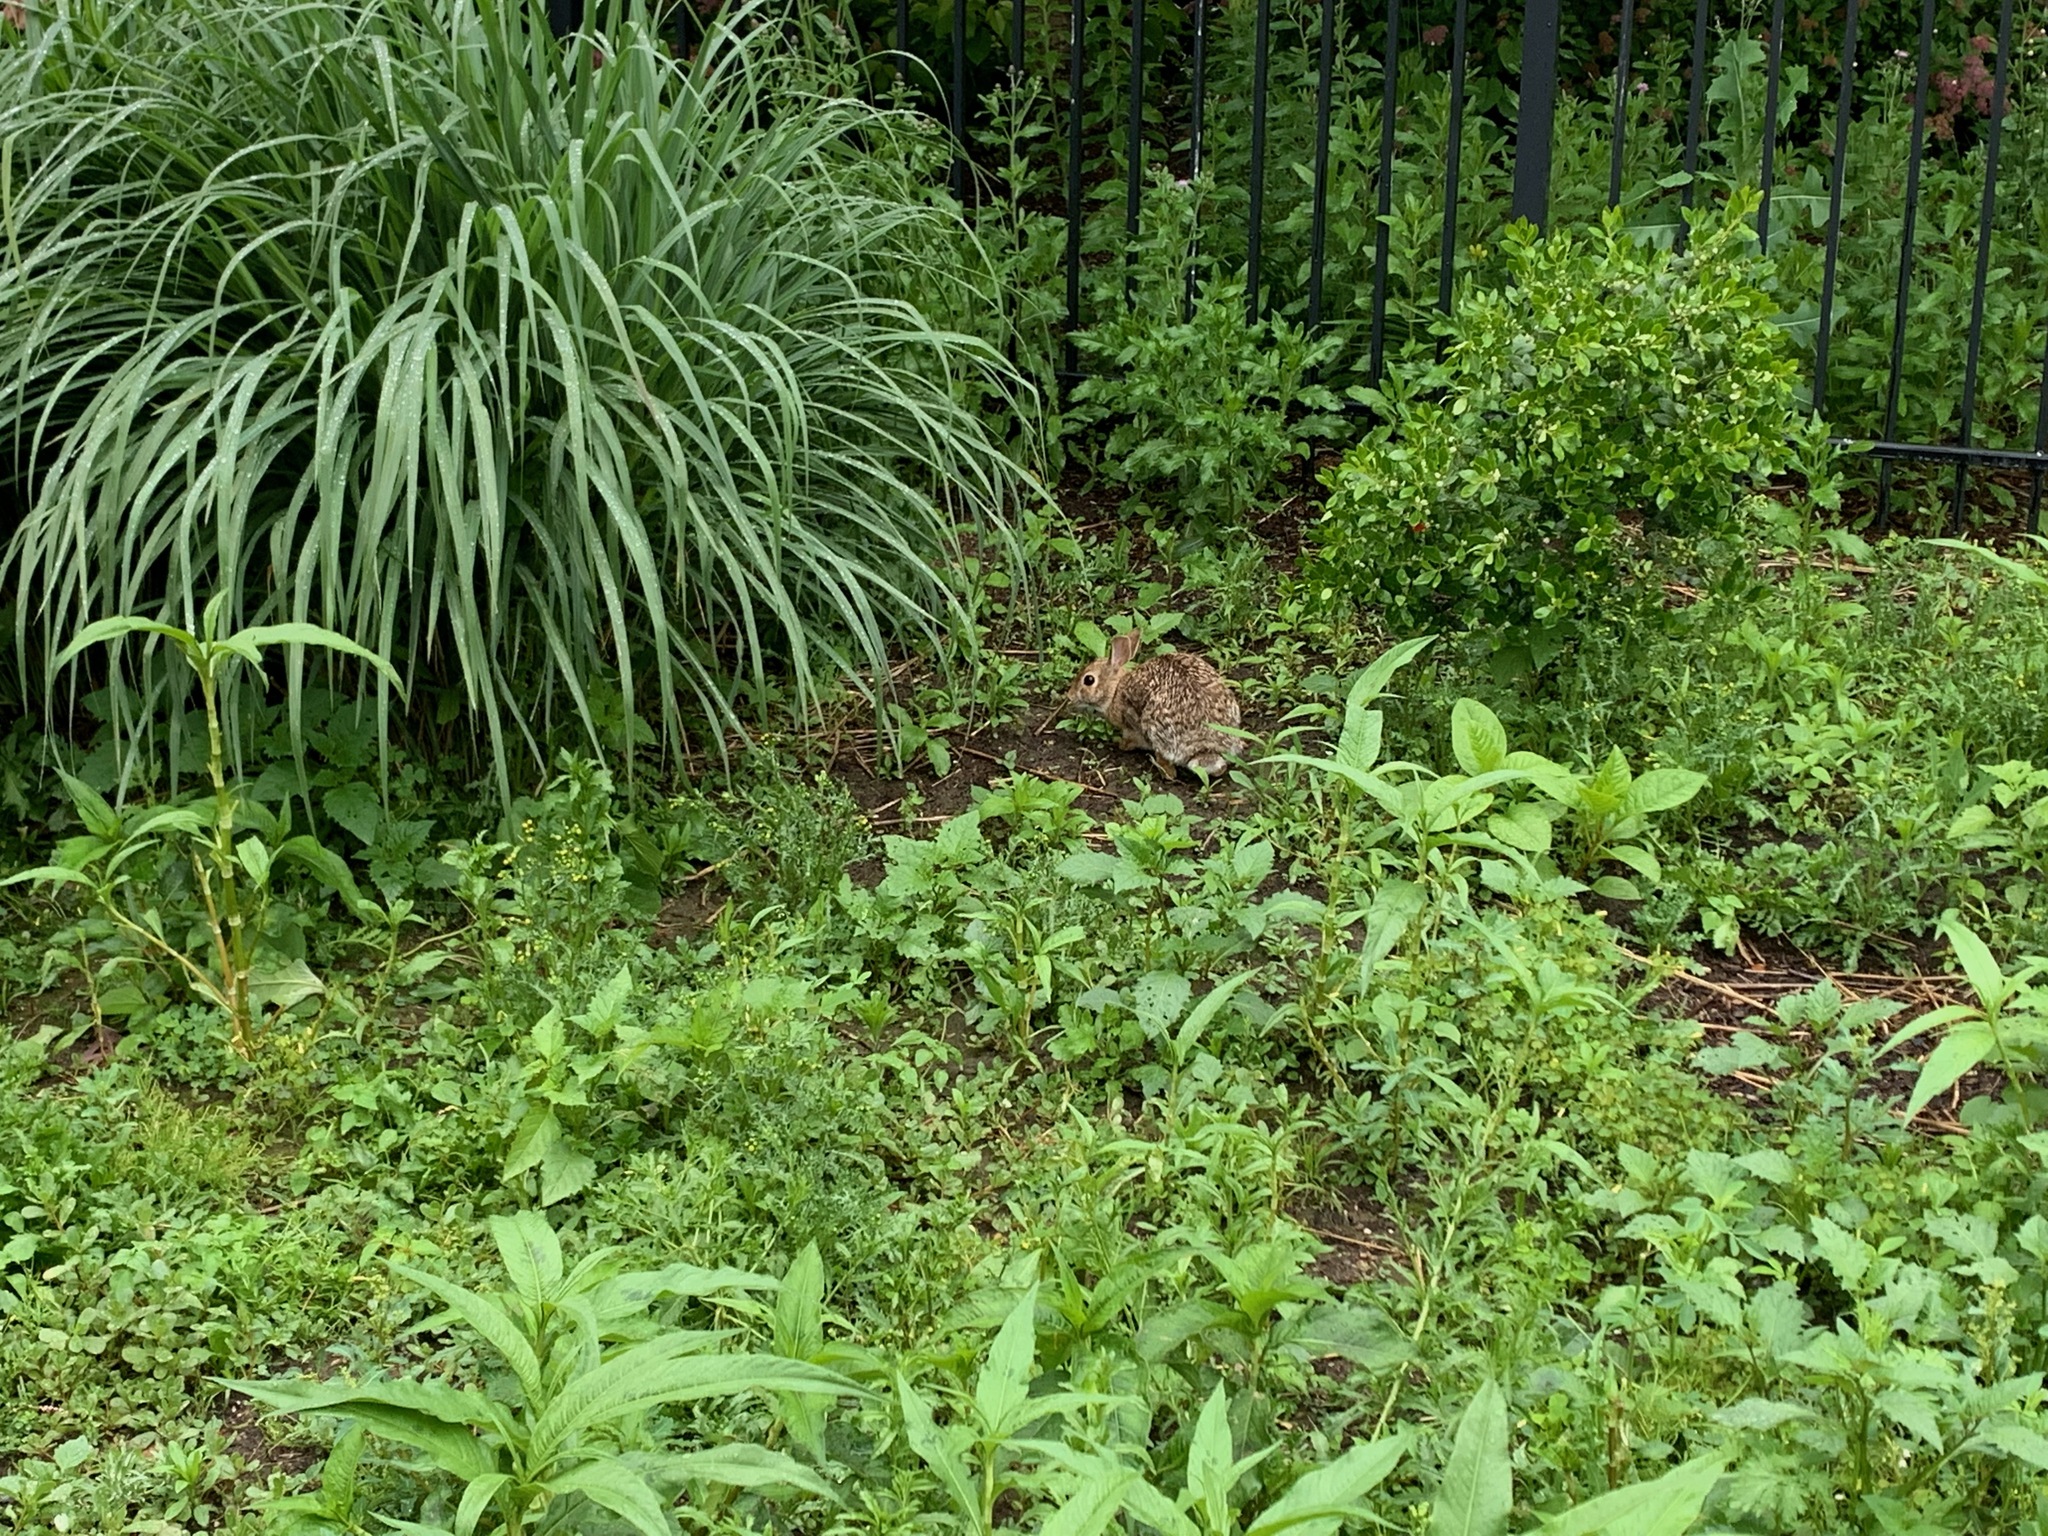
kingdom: Animalia
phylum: Chordata
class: Mammalia
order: Lagomorpha
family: Leporidae
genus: Sylvilagus
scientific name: Sylvilagus floridanus
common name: Eastern cottontail
